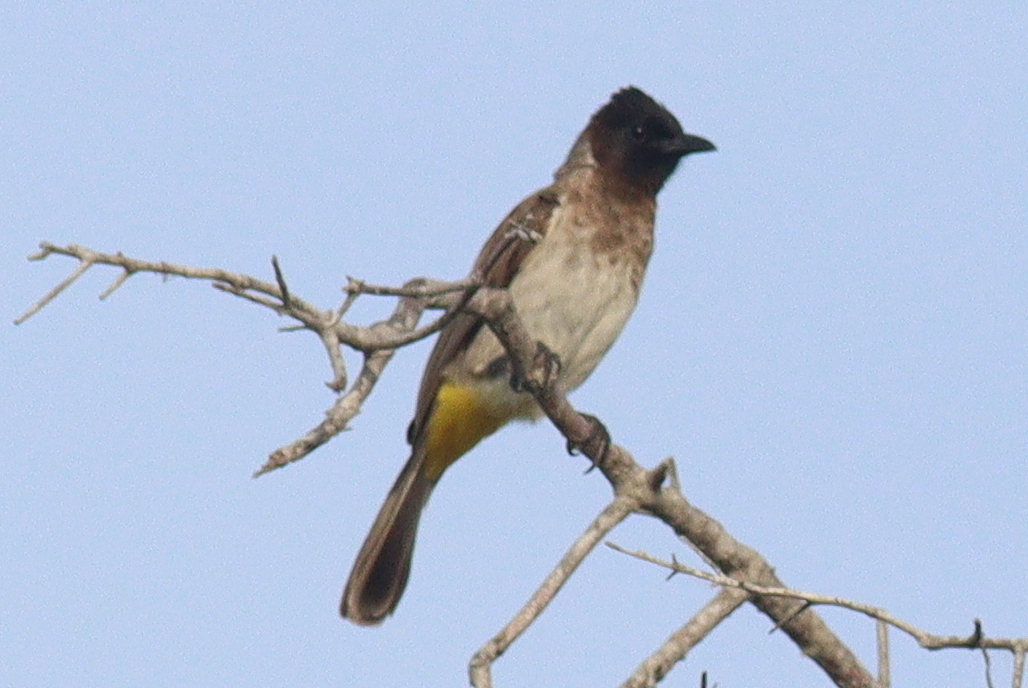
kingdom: Animalia
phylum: Chordata
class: Aves
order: Passeriformes
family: Pycnonotidae
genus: Pycnonotus
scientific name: Pycnonotus barbatus
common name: Common bulbul
